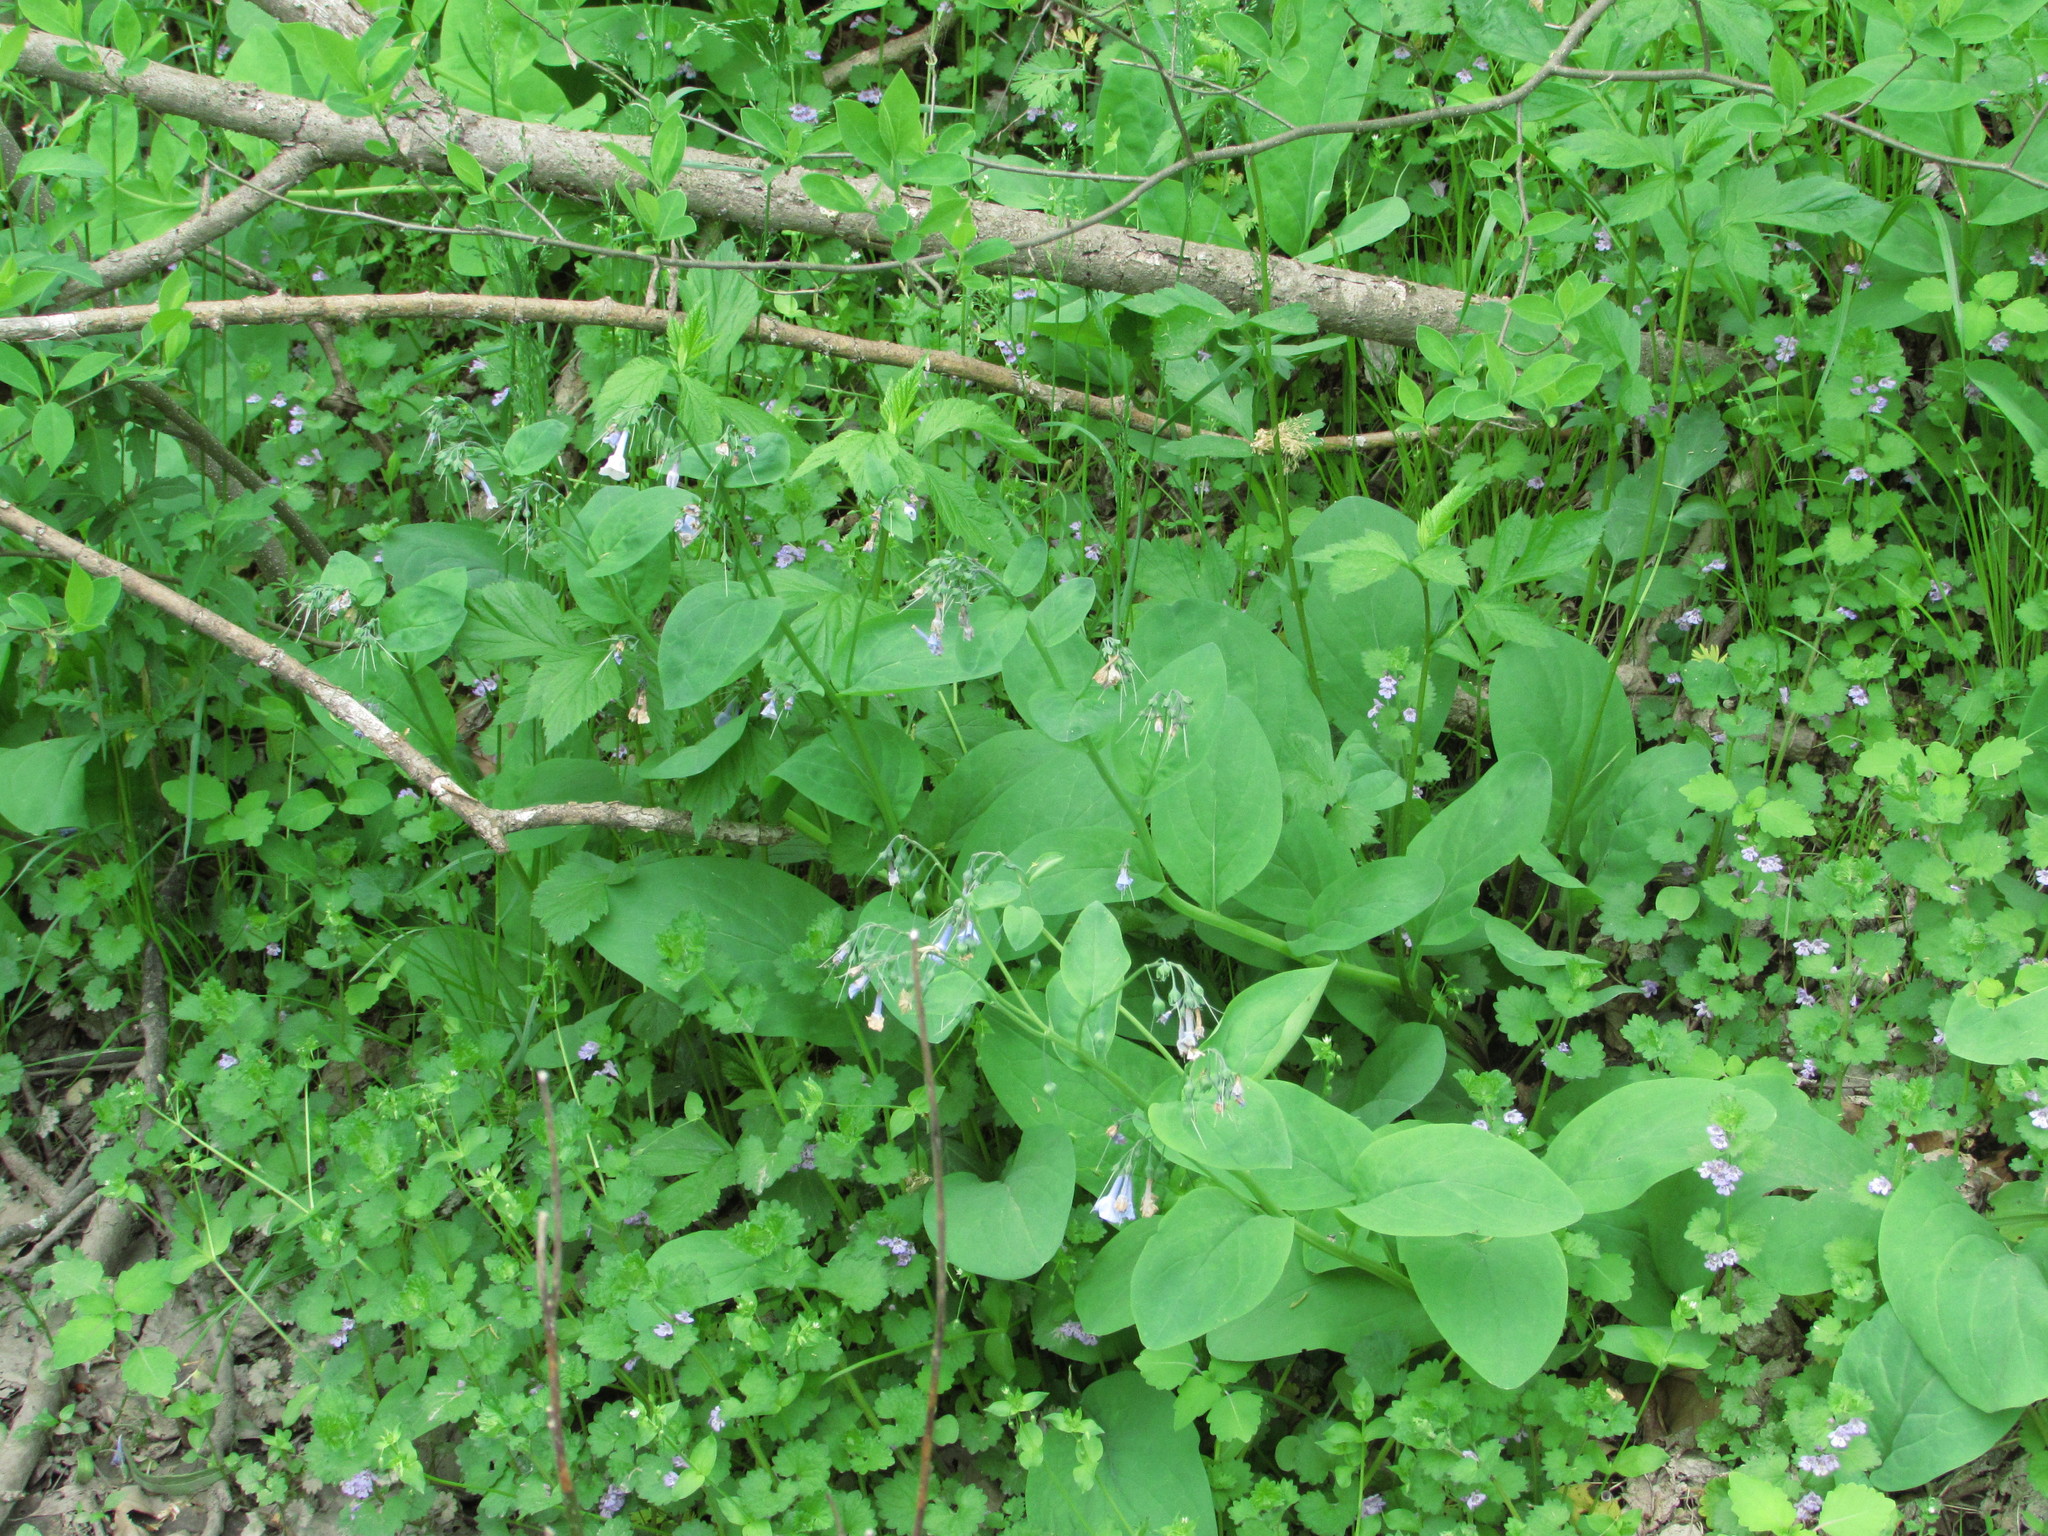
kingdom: Plantae
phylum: Tracheophyta
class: Magnoliopsida
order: Boraginales
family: Boraginaceae
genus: Mertensia
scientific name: Mertensia virginica
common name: Virginia bluebells
